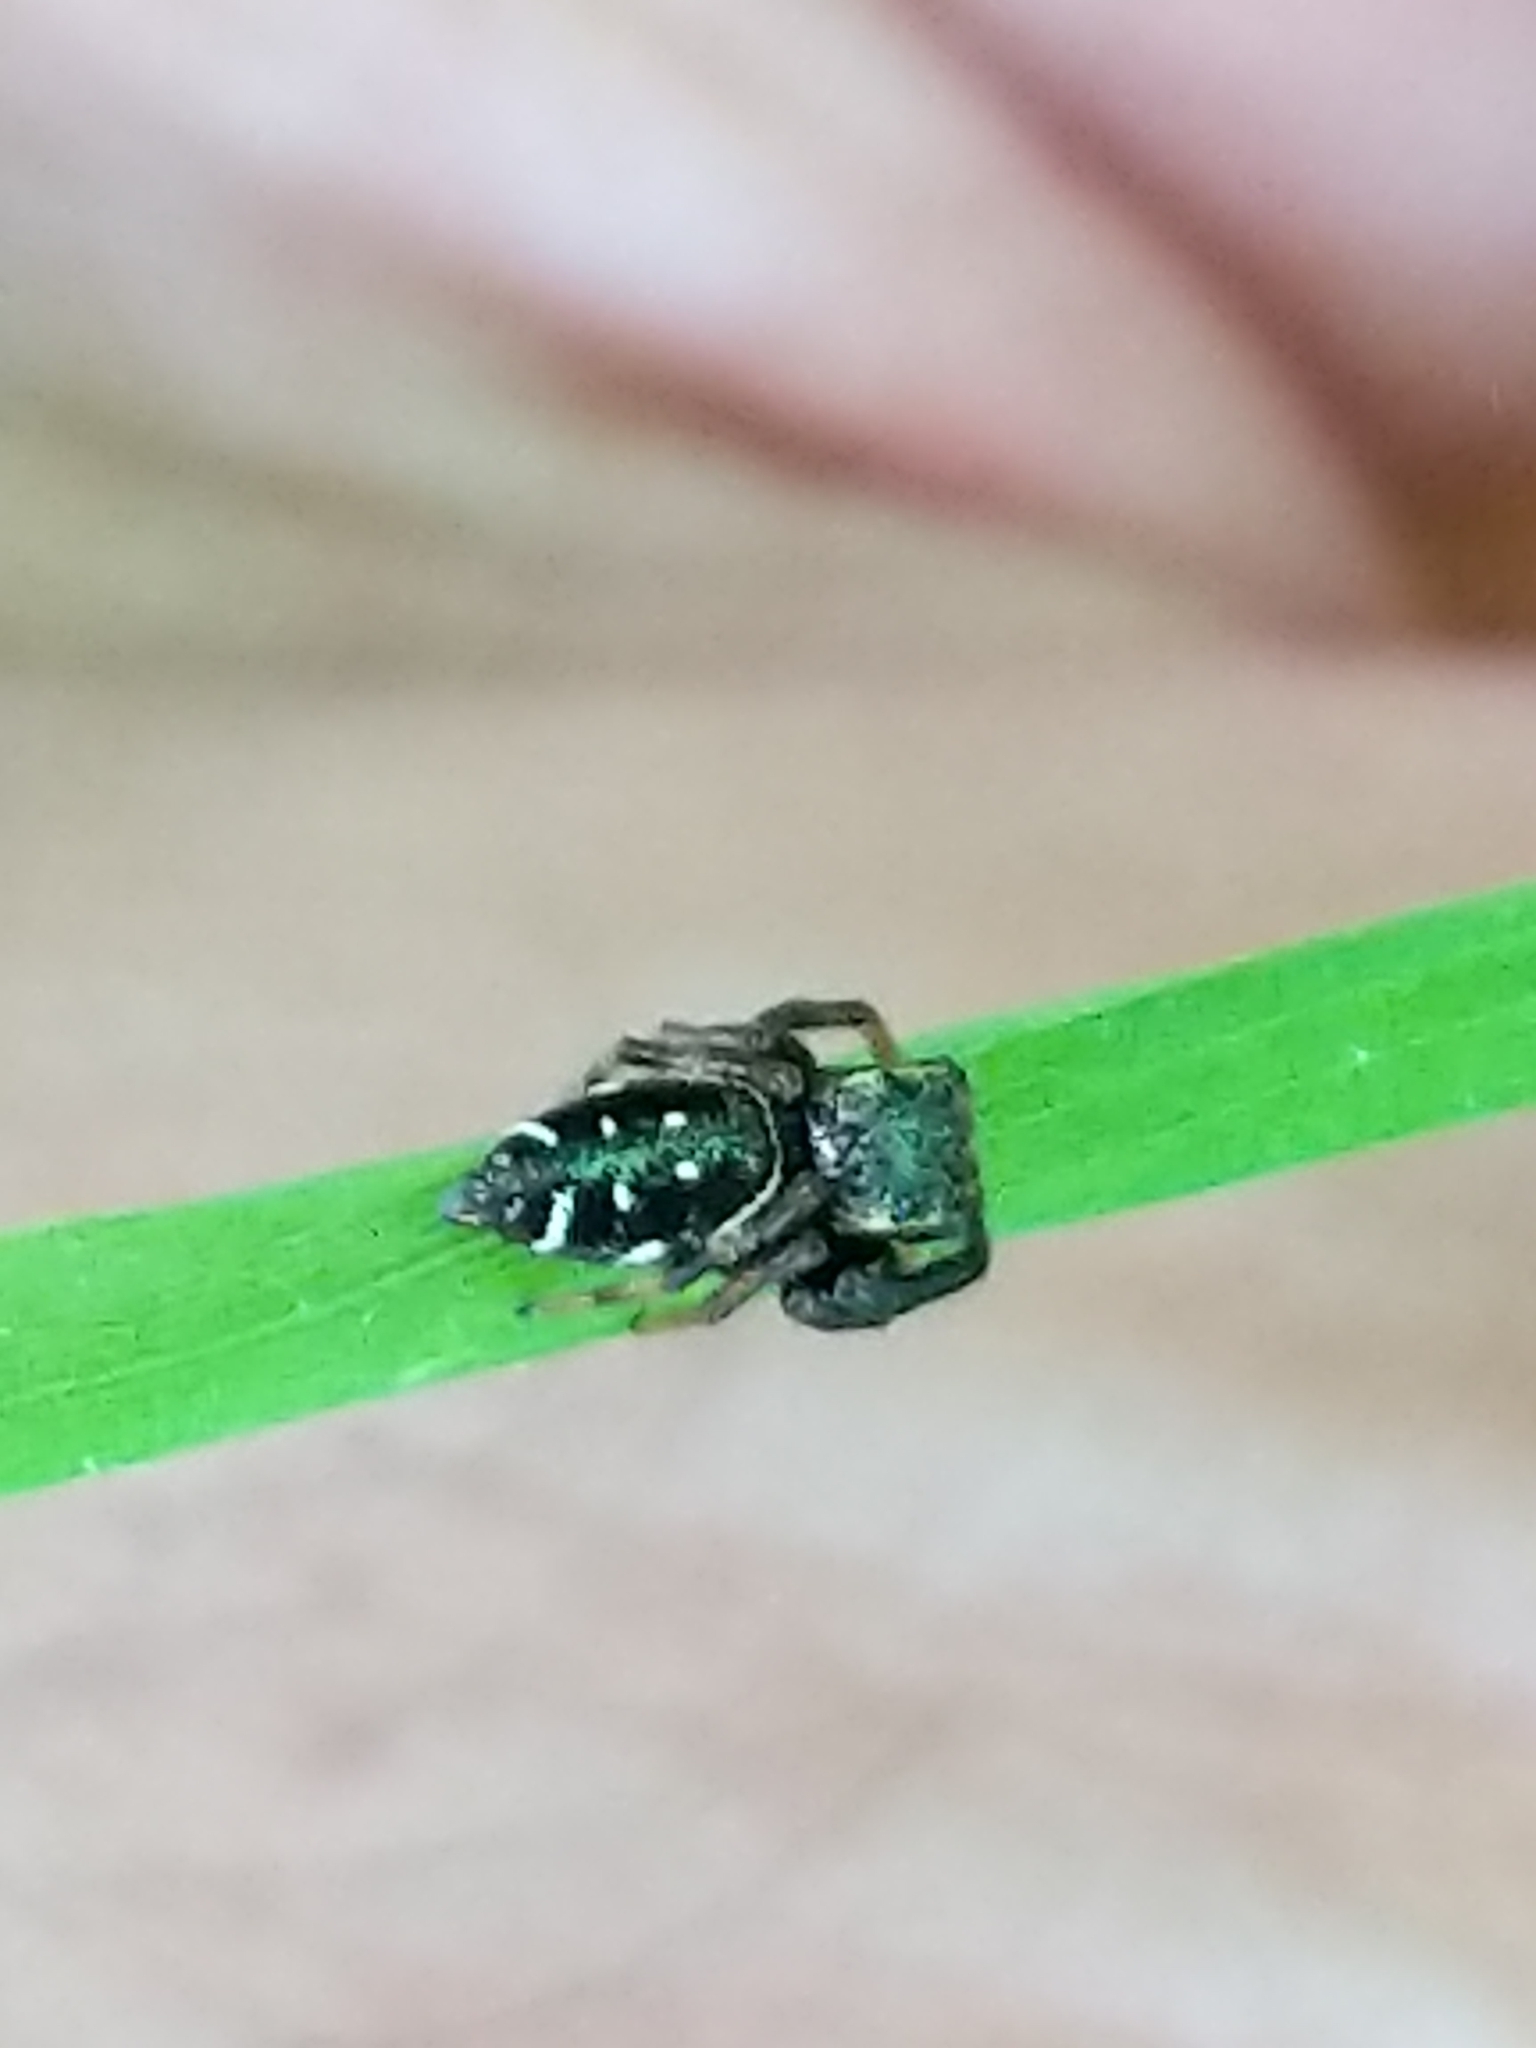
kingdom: Animalia
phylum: Arthropoda
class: Arachnida
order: Araneae
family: Salticidae
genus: Paraphidippus
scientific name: Paraphidippus aurantius
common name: Jumping spiders
